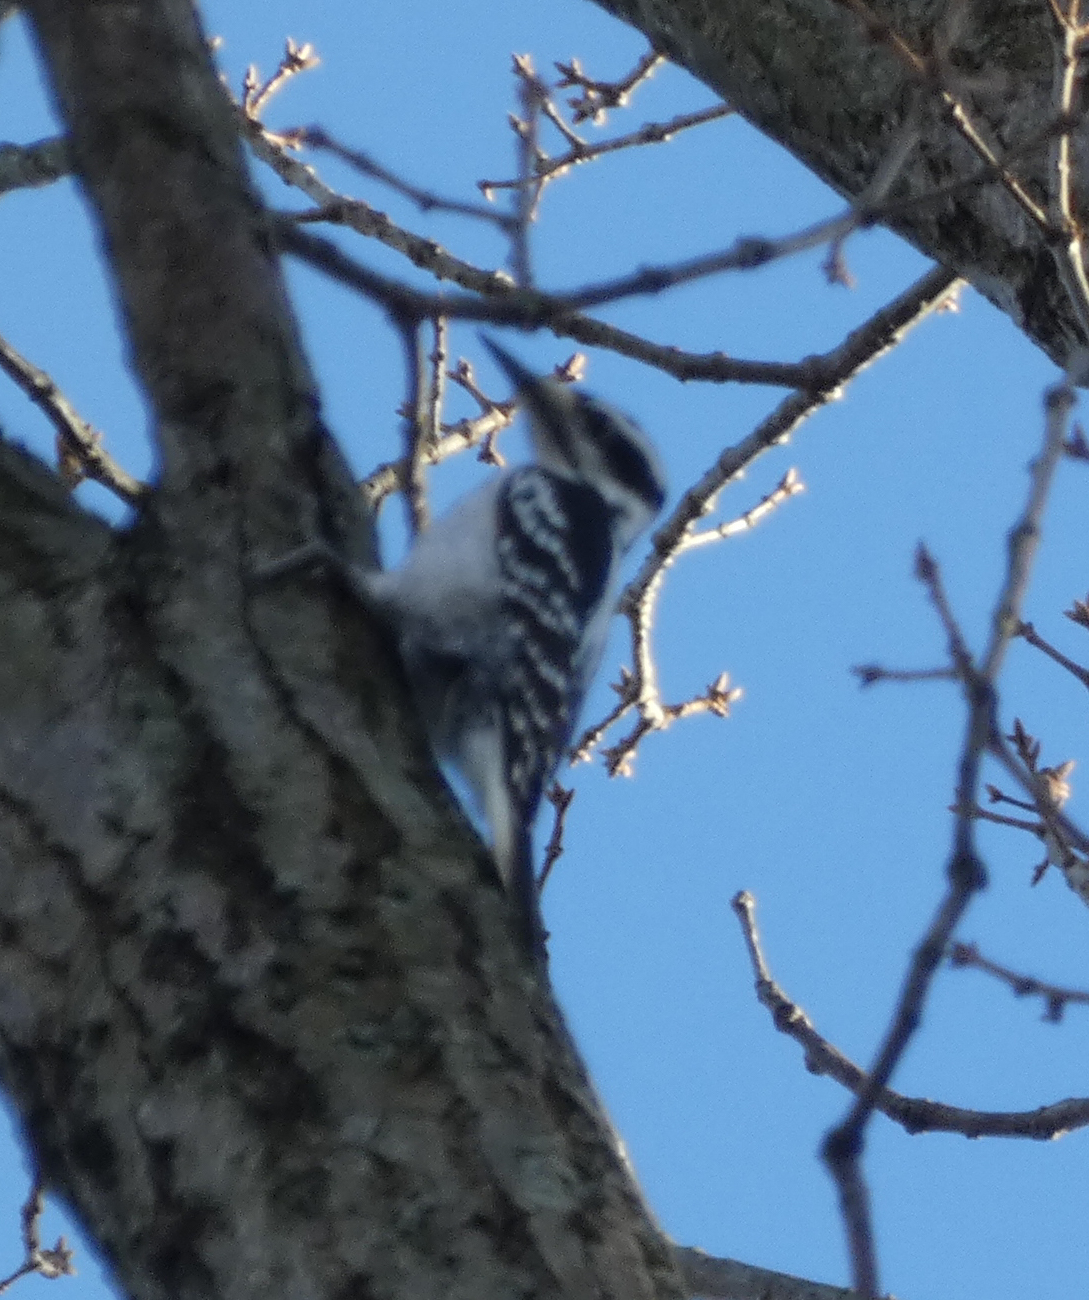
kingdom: Animalia
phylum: Chordata
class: Aves
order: Piciformes
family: Picidae
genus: Leuconotopicus
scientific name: Leuconotopicus villosus
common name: Hairy woodpecker
